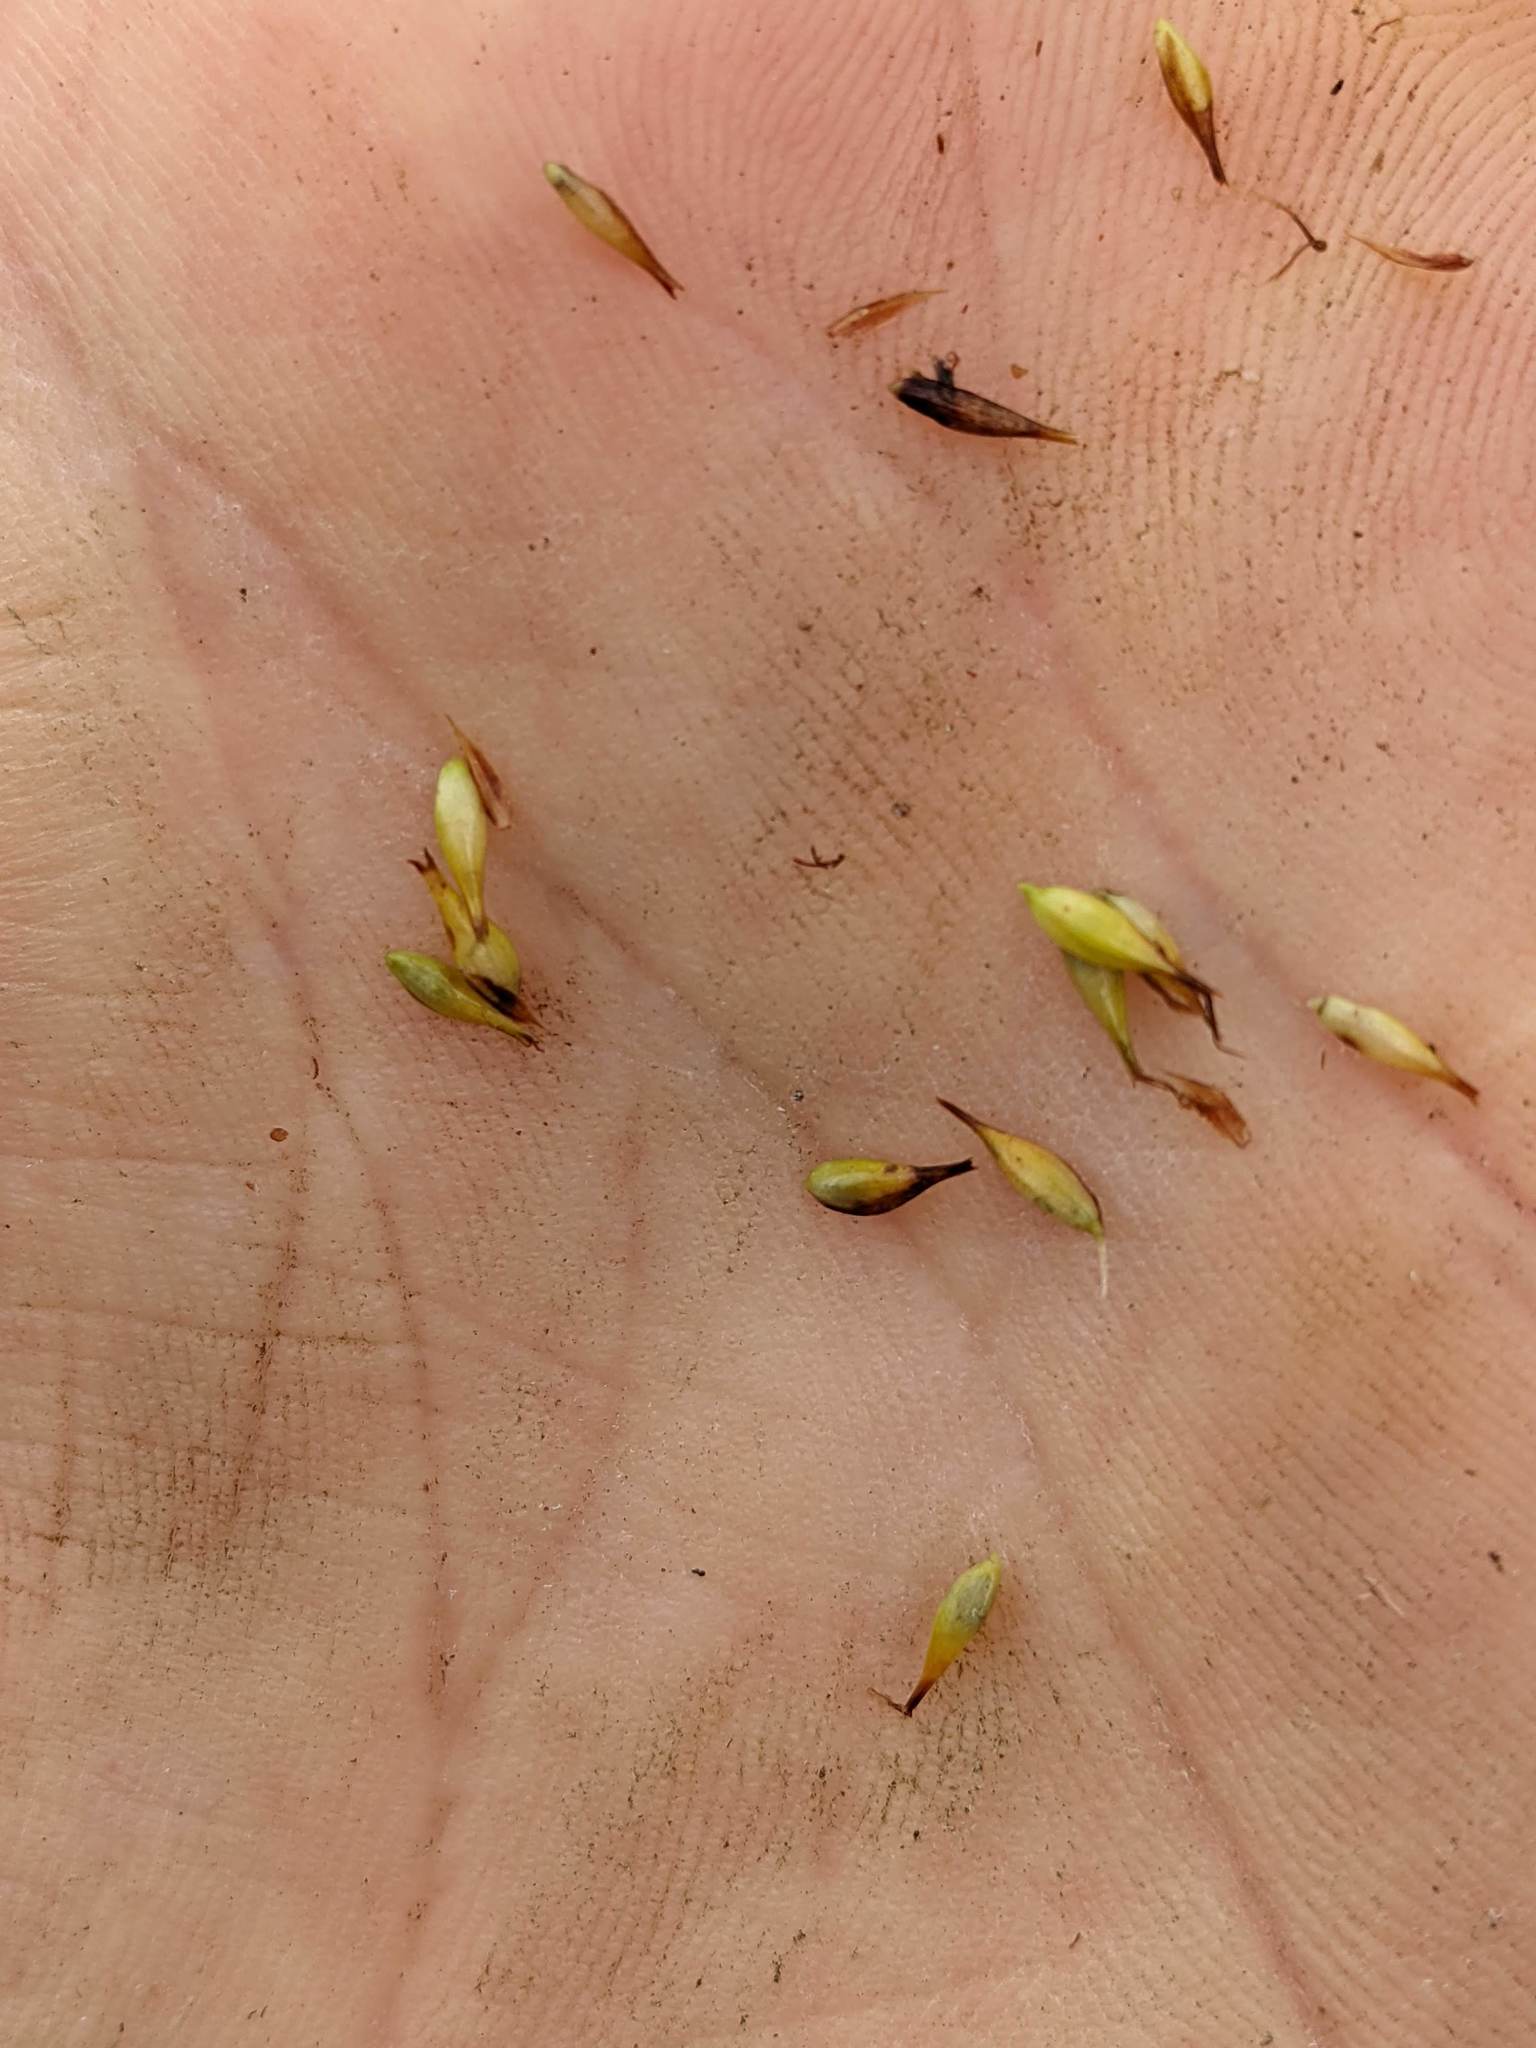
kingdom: Plantae
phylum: Tracheophyta
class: Liliopsida
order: Poales
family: Cyperaceae
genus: Carex
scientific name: Carex utriculata
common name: Beaked sedge
